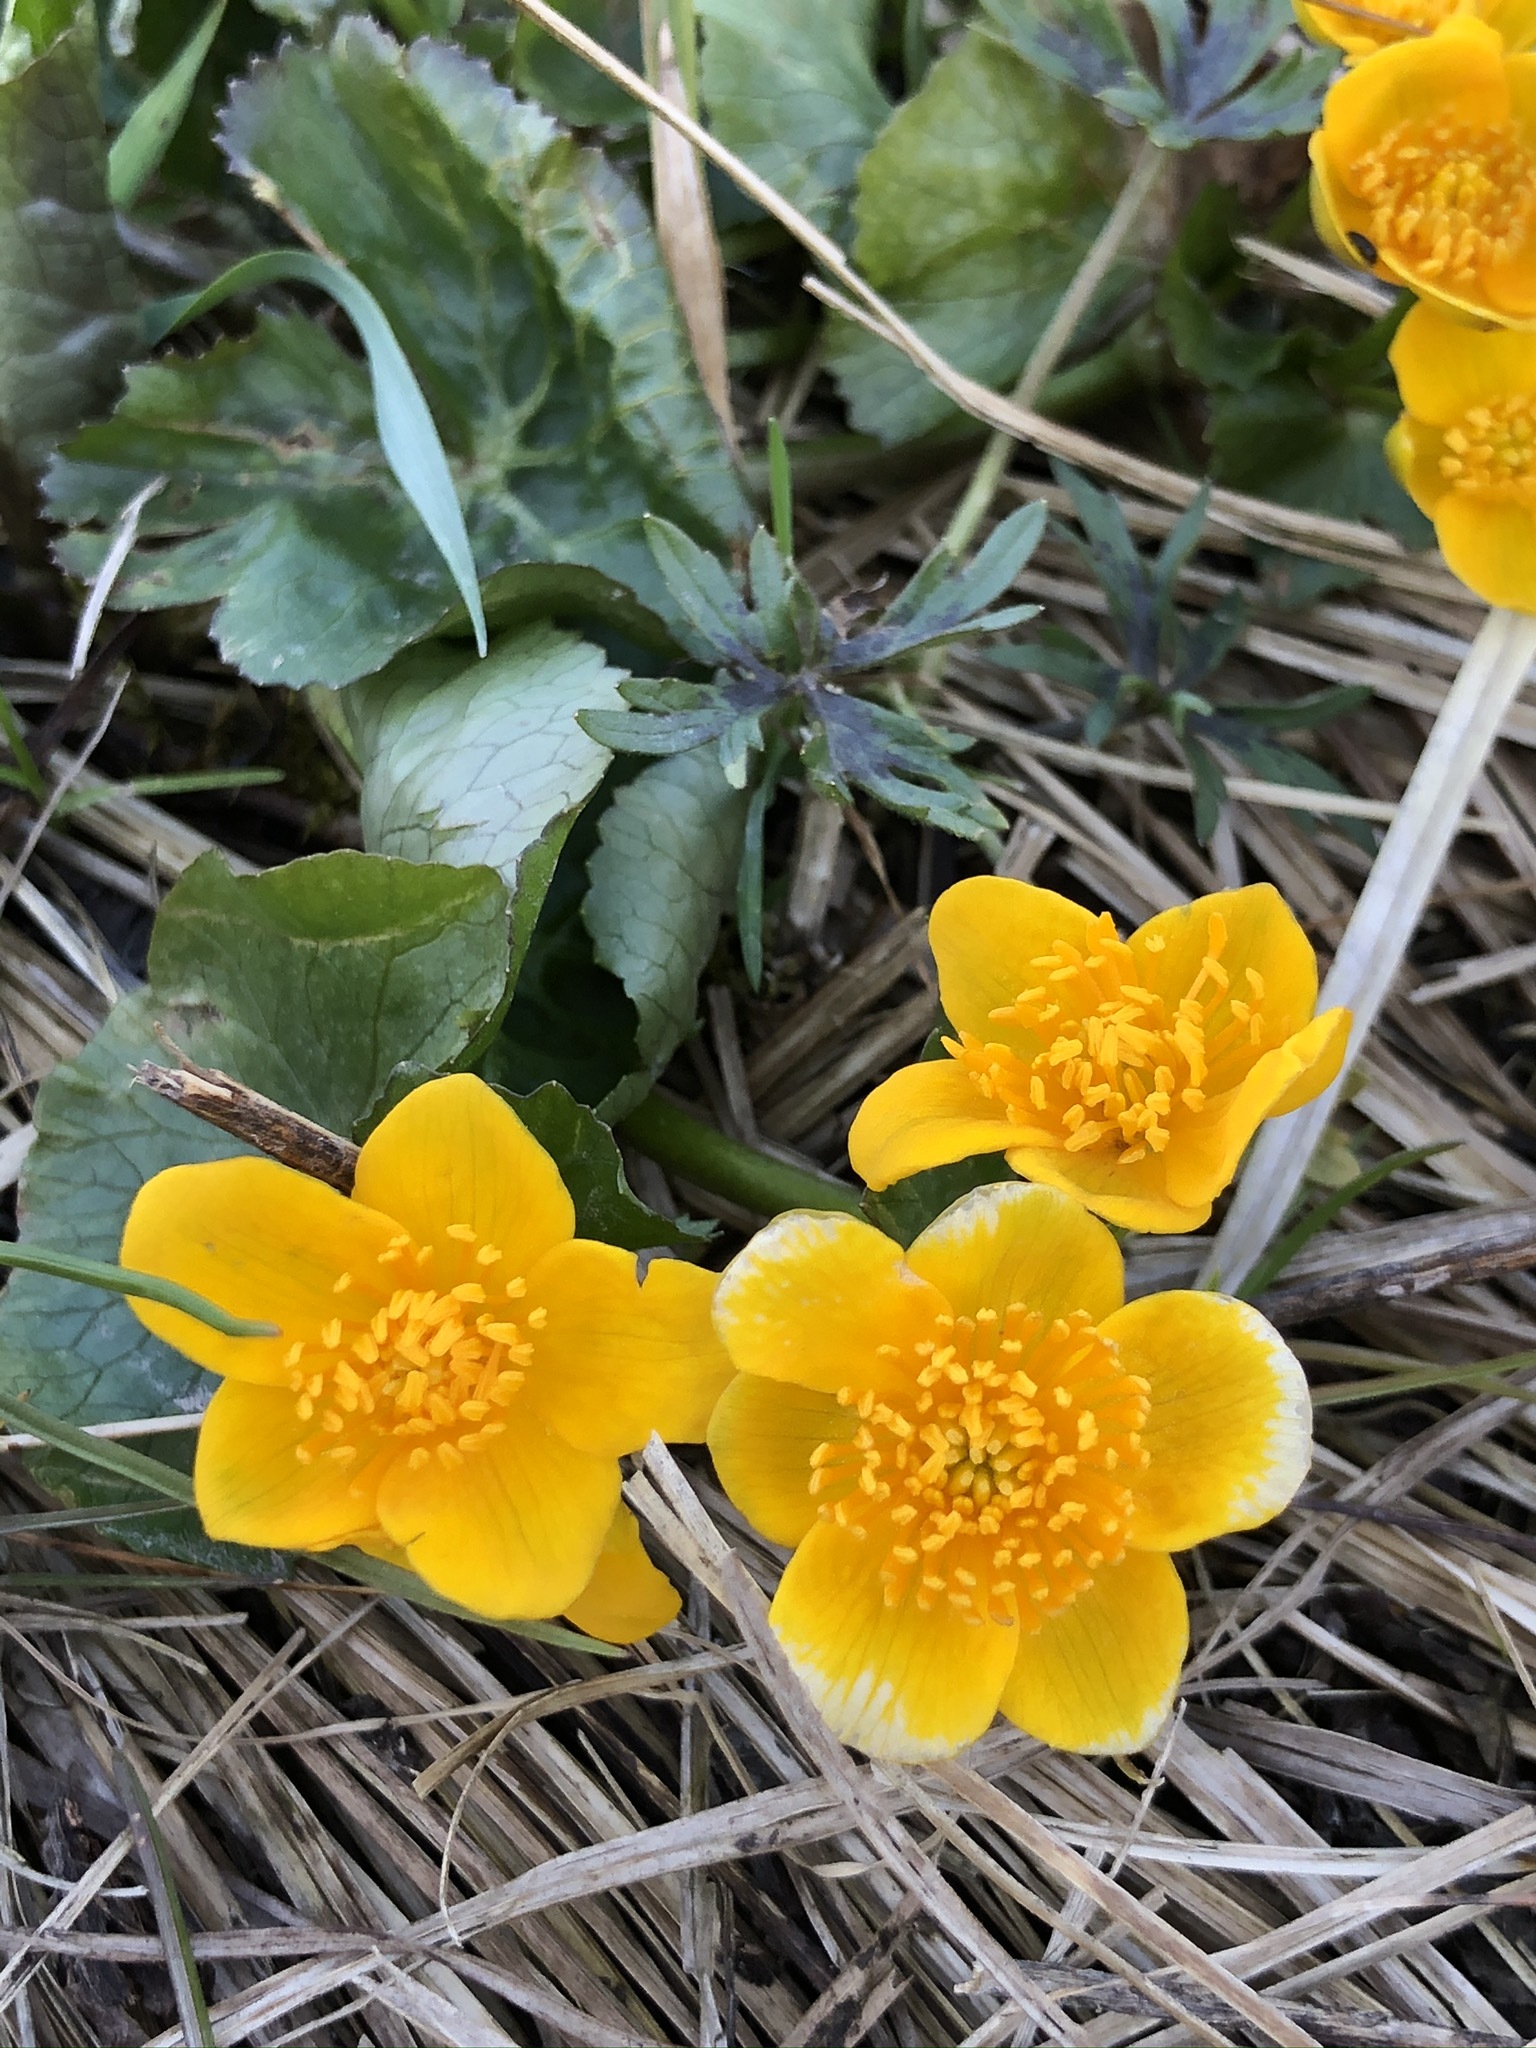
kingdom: Plantae
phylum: Tracheophyta
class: Magnoliopsida
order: Ranunculales
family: Ranunculaceae
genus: Caltha
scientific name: Caltha palustris
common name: Marsh marigold
